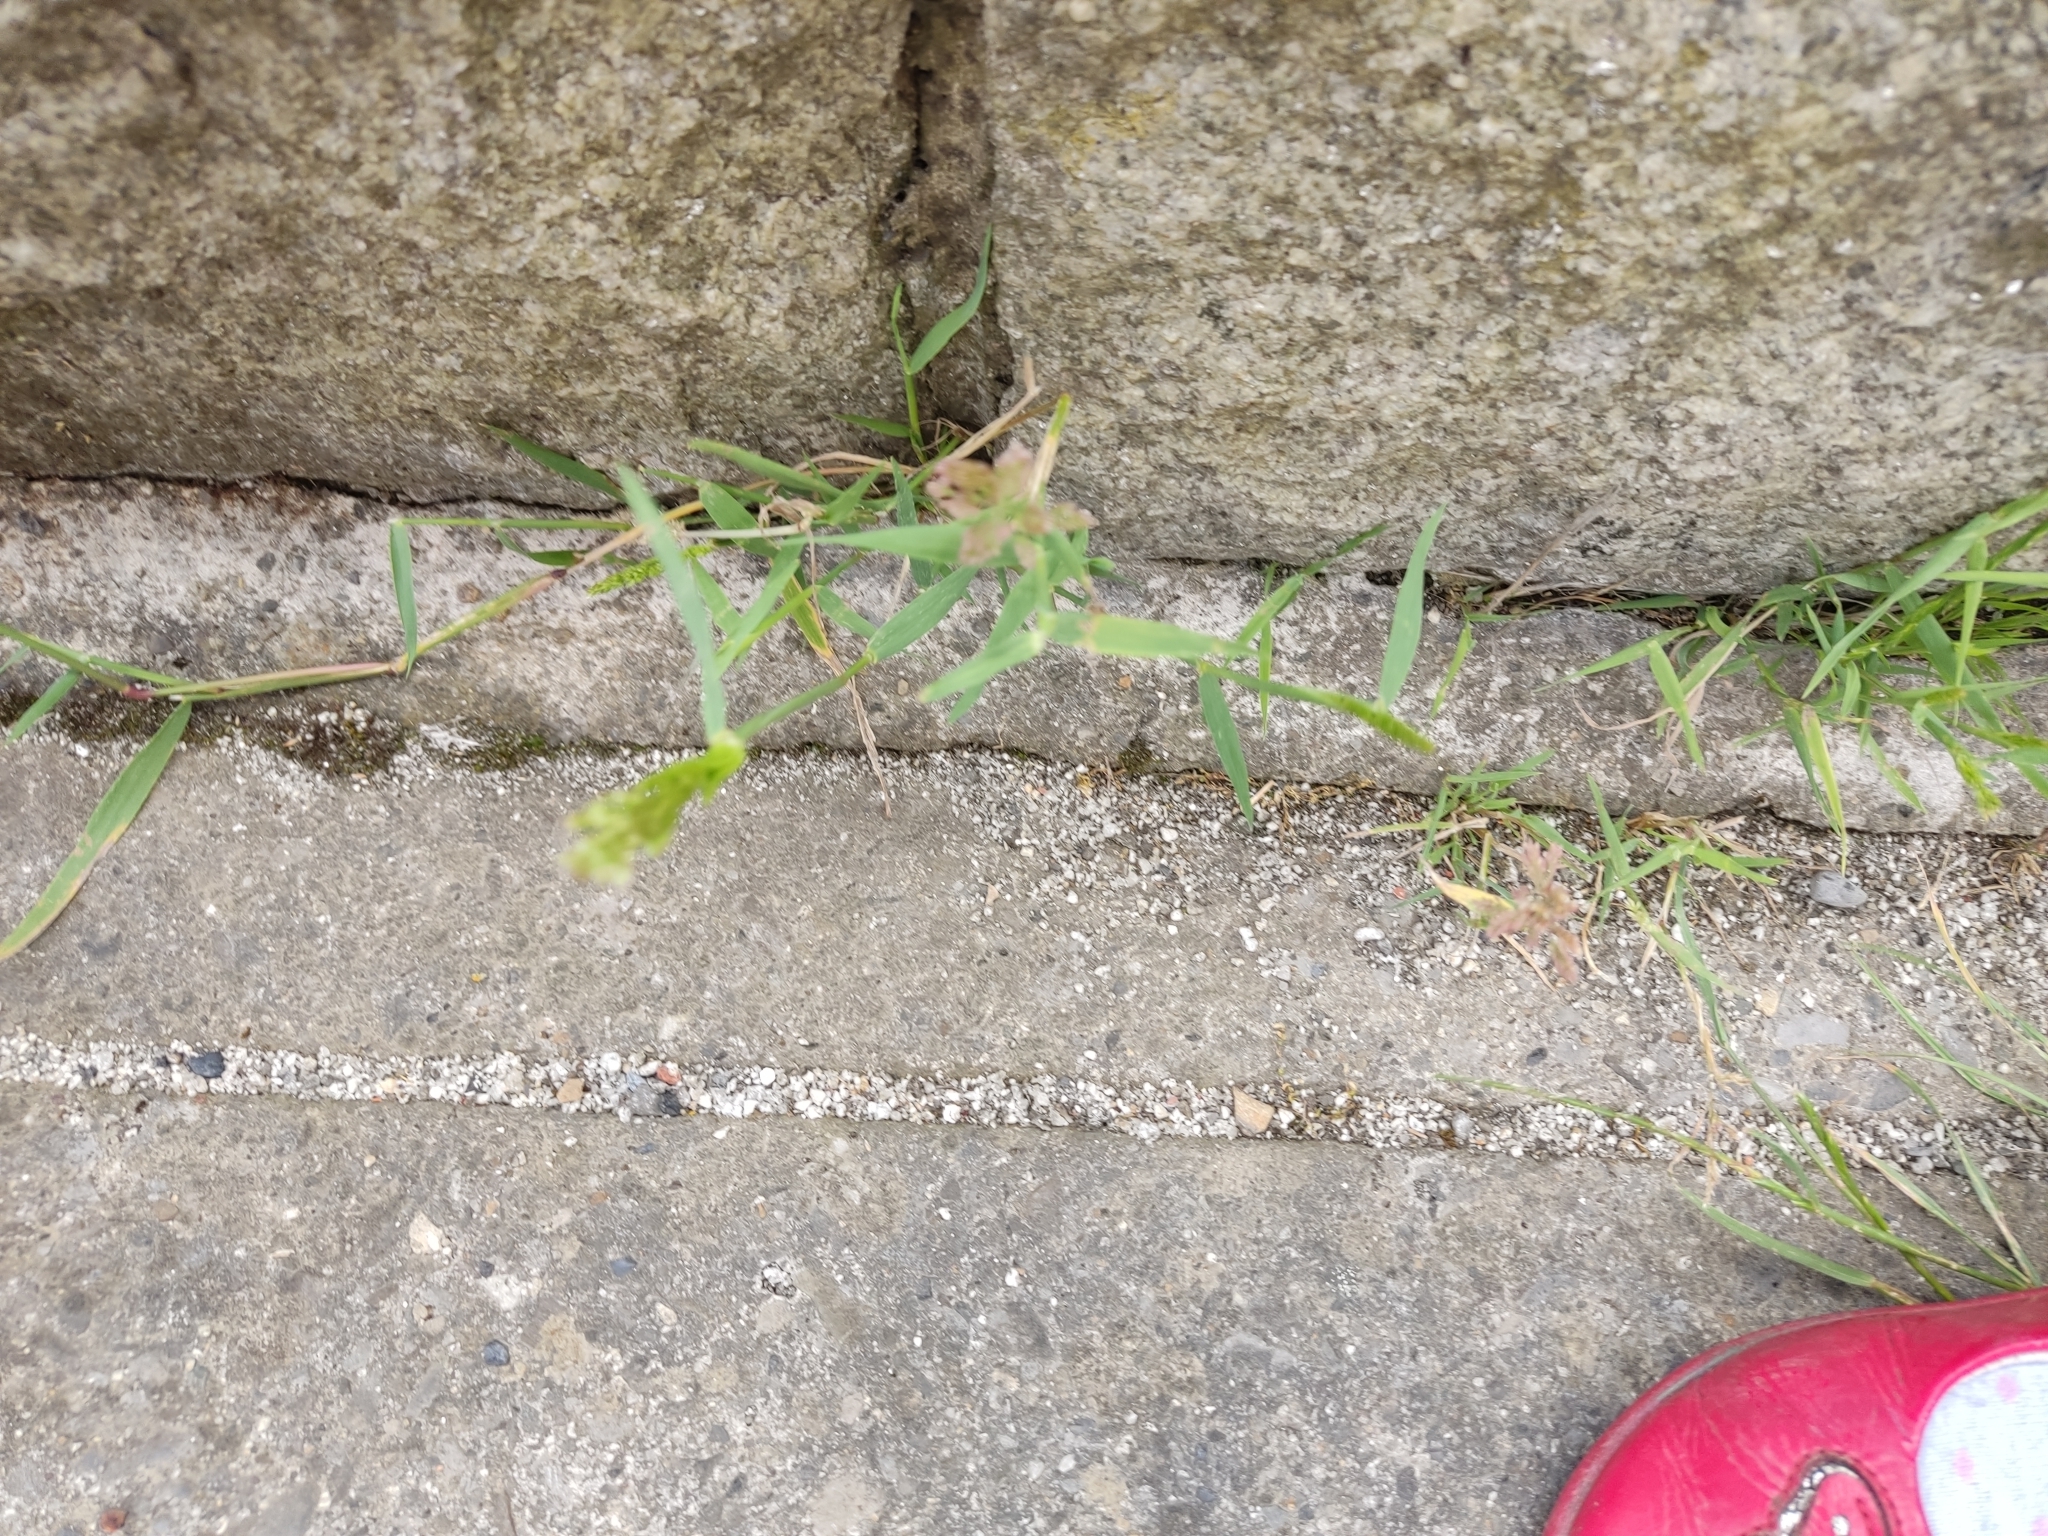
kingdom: Plantae
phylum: Tracheophyta
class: Liliopsida
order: Poales
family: Poaceae
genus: Polypogon
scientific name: Polypogon viridis
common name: Water bent
